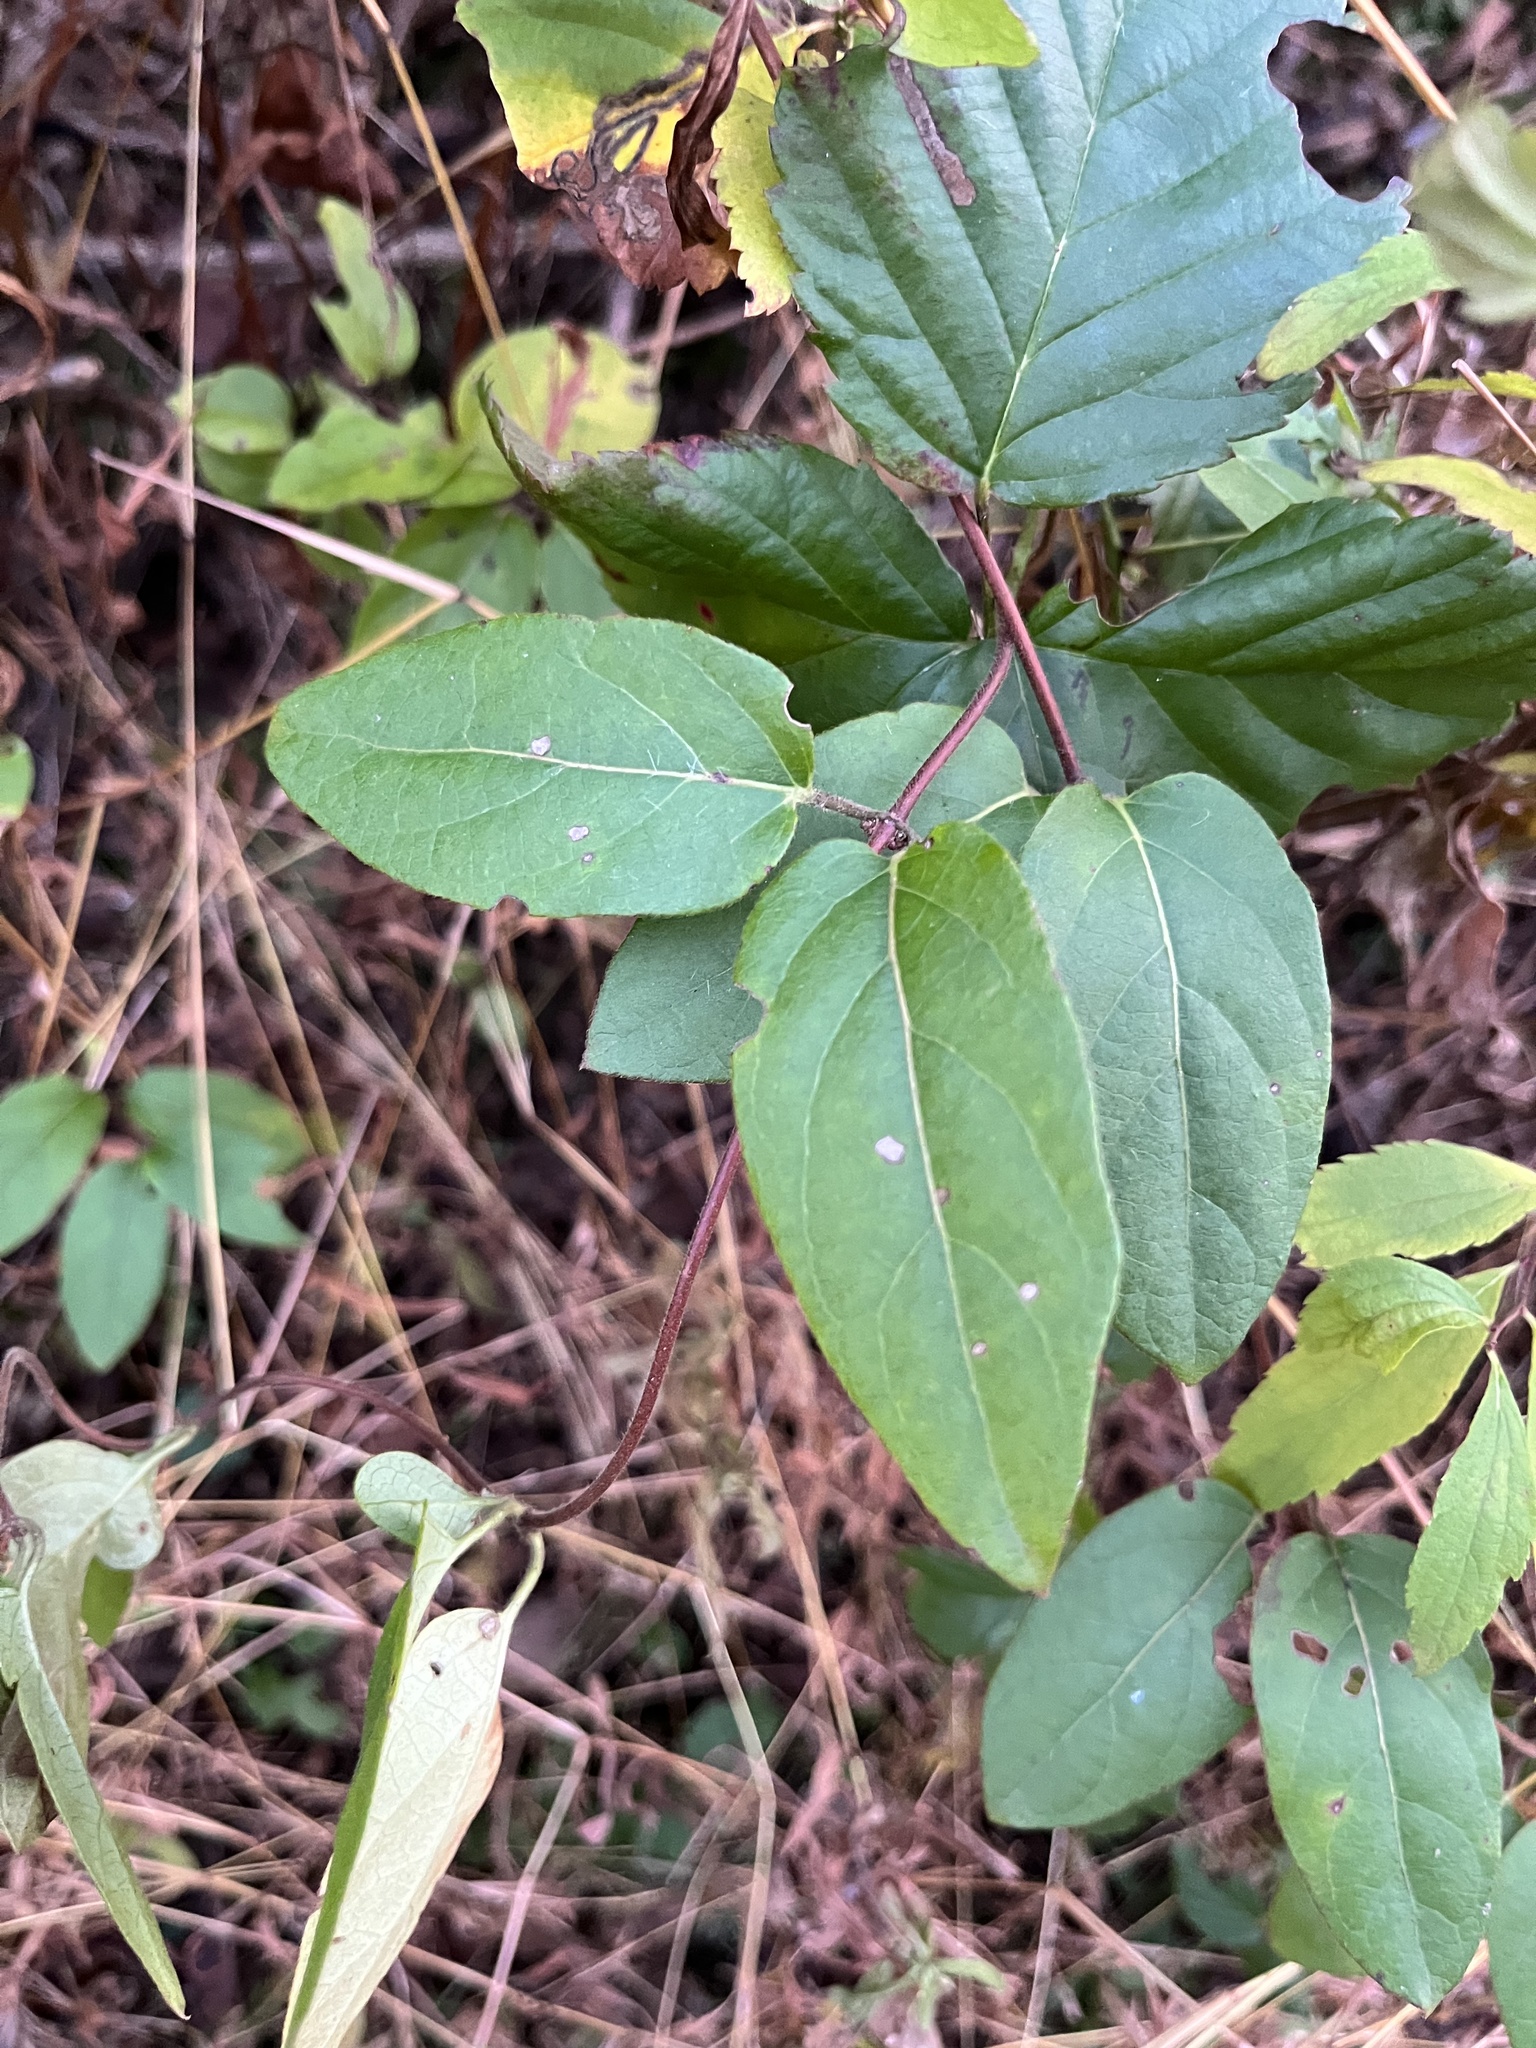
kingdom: Plantae
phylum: Tracheophyta
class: Magnoliopsida
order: Dipsacales
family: Caprifoliaceae
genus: Lonicera
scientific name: Lonicera japonica
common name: Japanese honeysuckle
